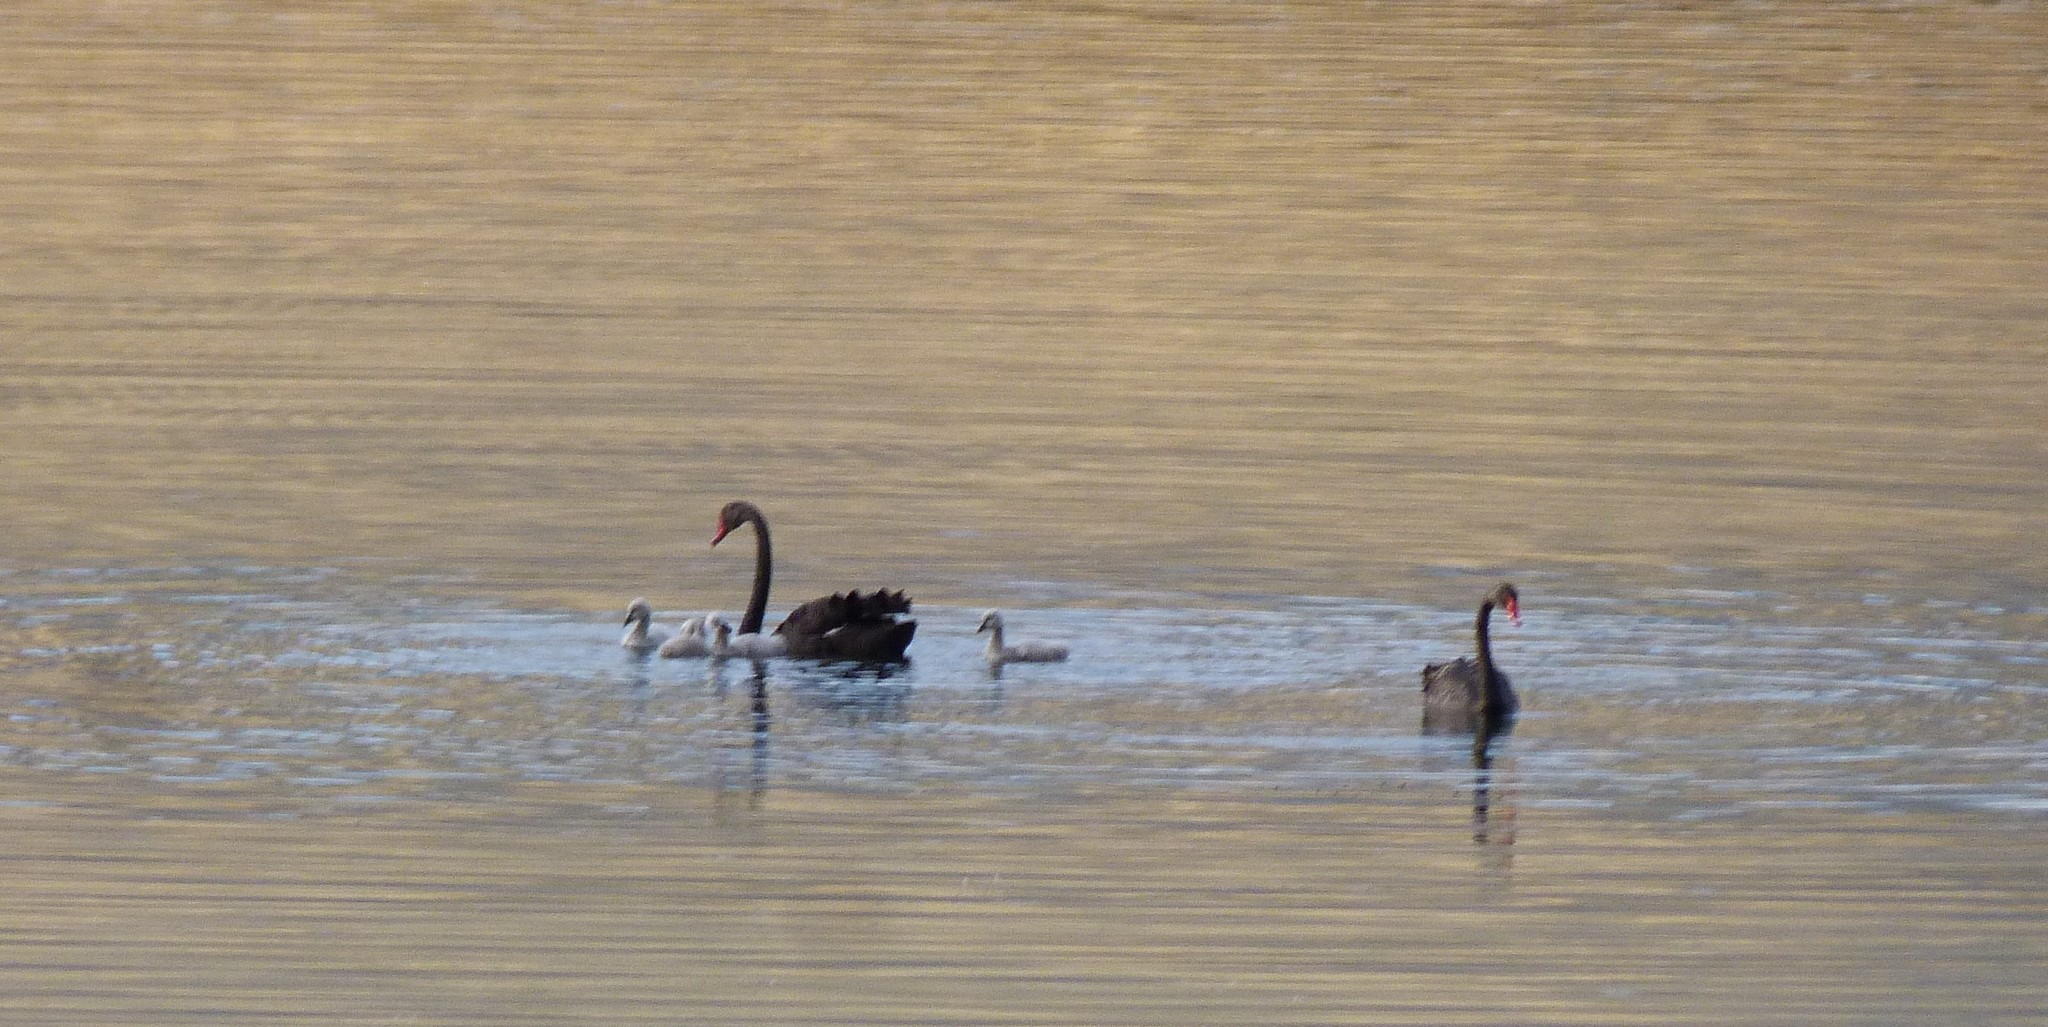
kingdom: Animalia
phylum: Chordata
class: Aves
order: Anseriformes
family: Anatidae
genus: Cygnus
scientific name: Cygnus atratus
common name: Black swan
